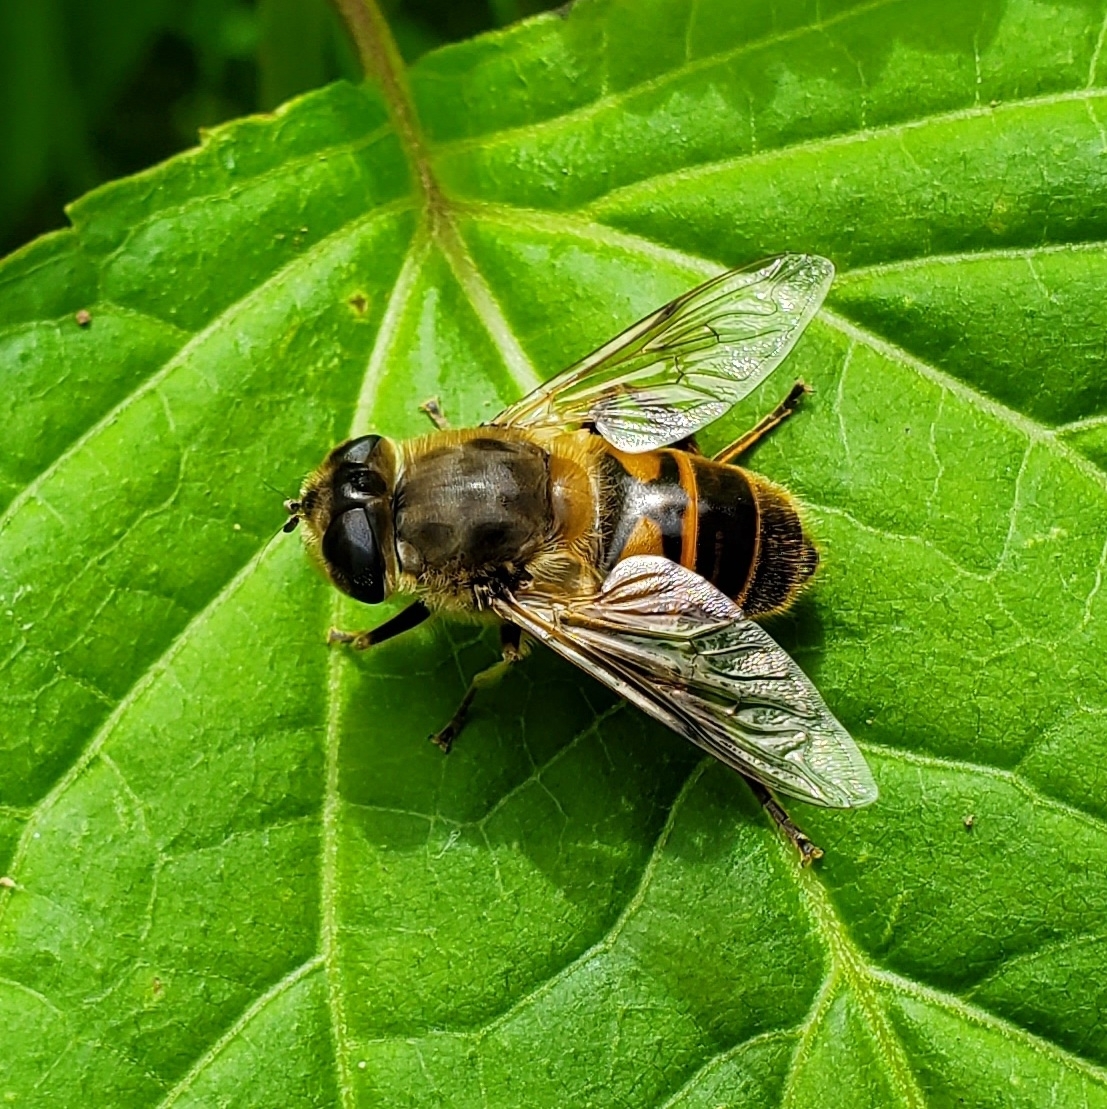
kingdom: Animalia
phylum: Arthropoda
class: Insecta
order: Diptera
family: Syrphidae
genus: Eristalis
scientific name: Eristalis tenax
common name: Drone fly
